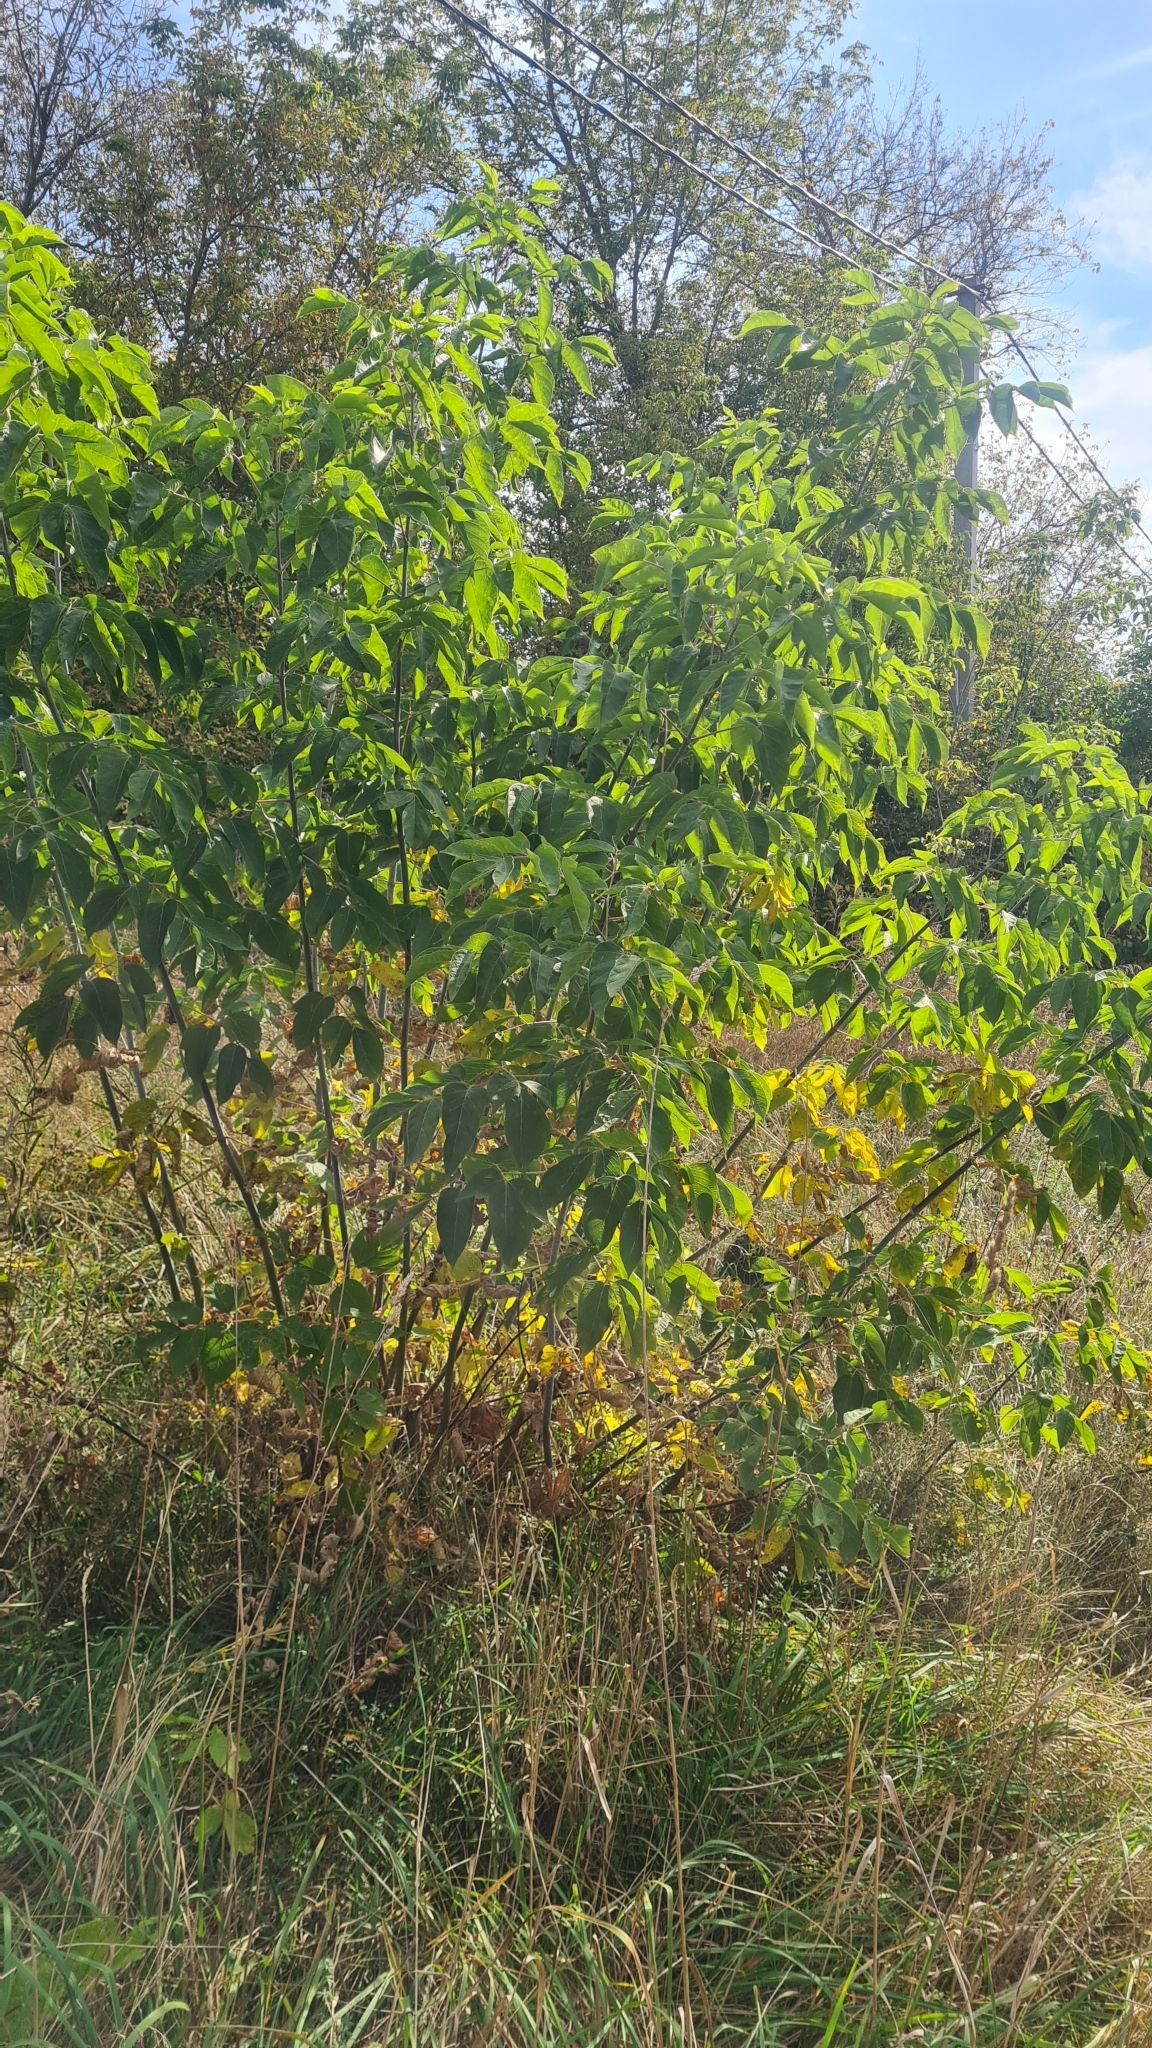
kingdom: Plantae
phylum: Tracheophyta
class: Magnoliopsida
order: Sapindales
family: Sapindaceae
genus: Acer
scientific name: Acer negundo
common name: Ashleaf maple
